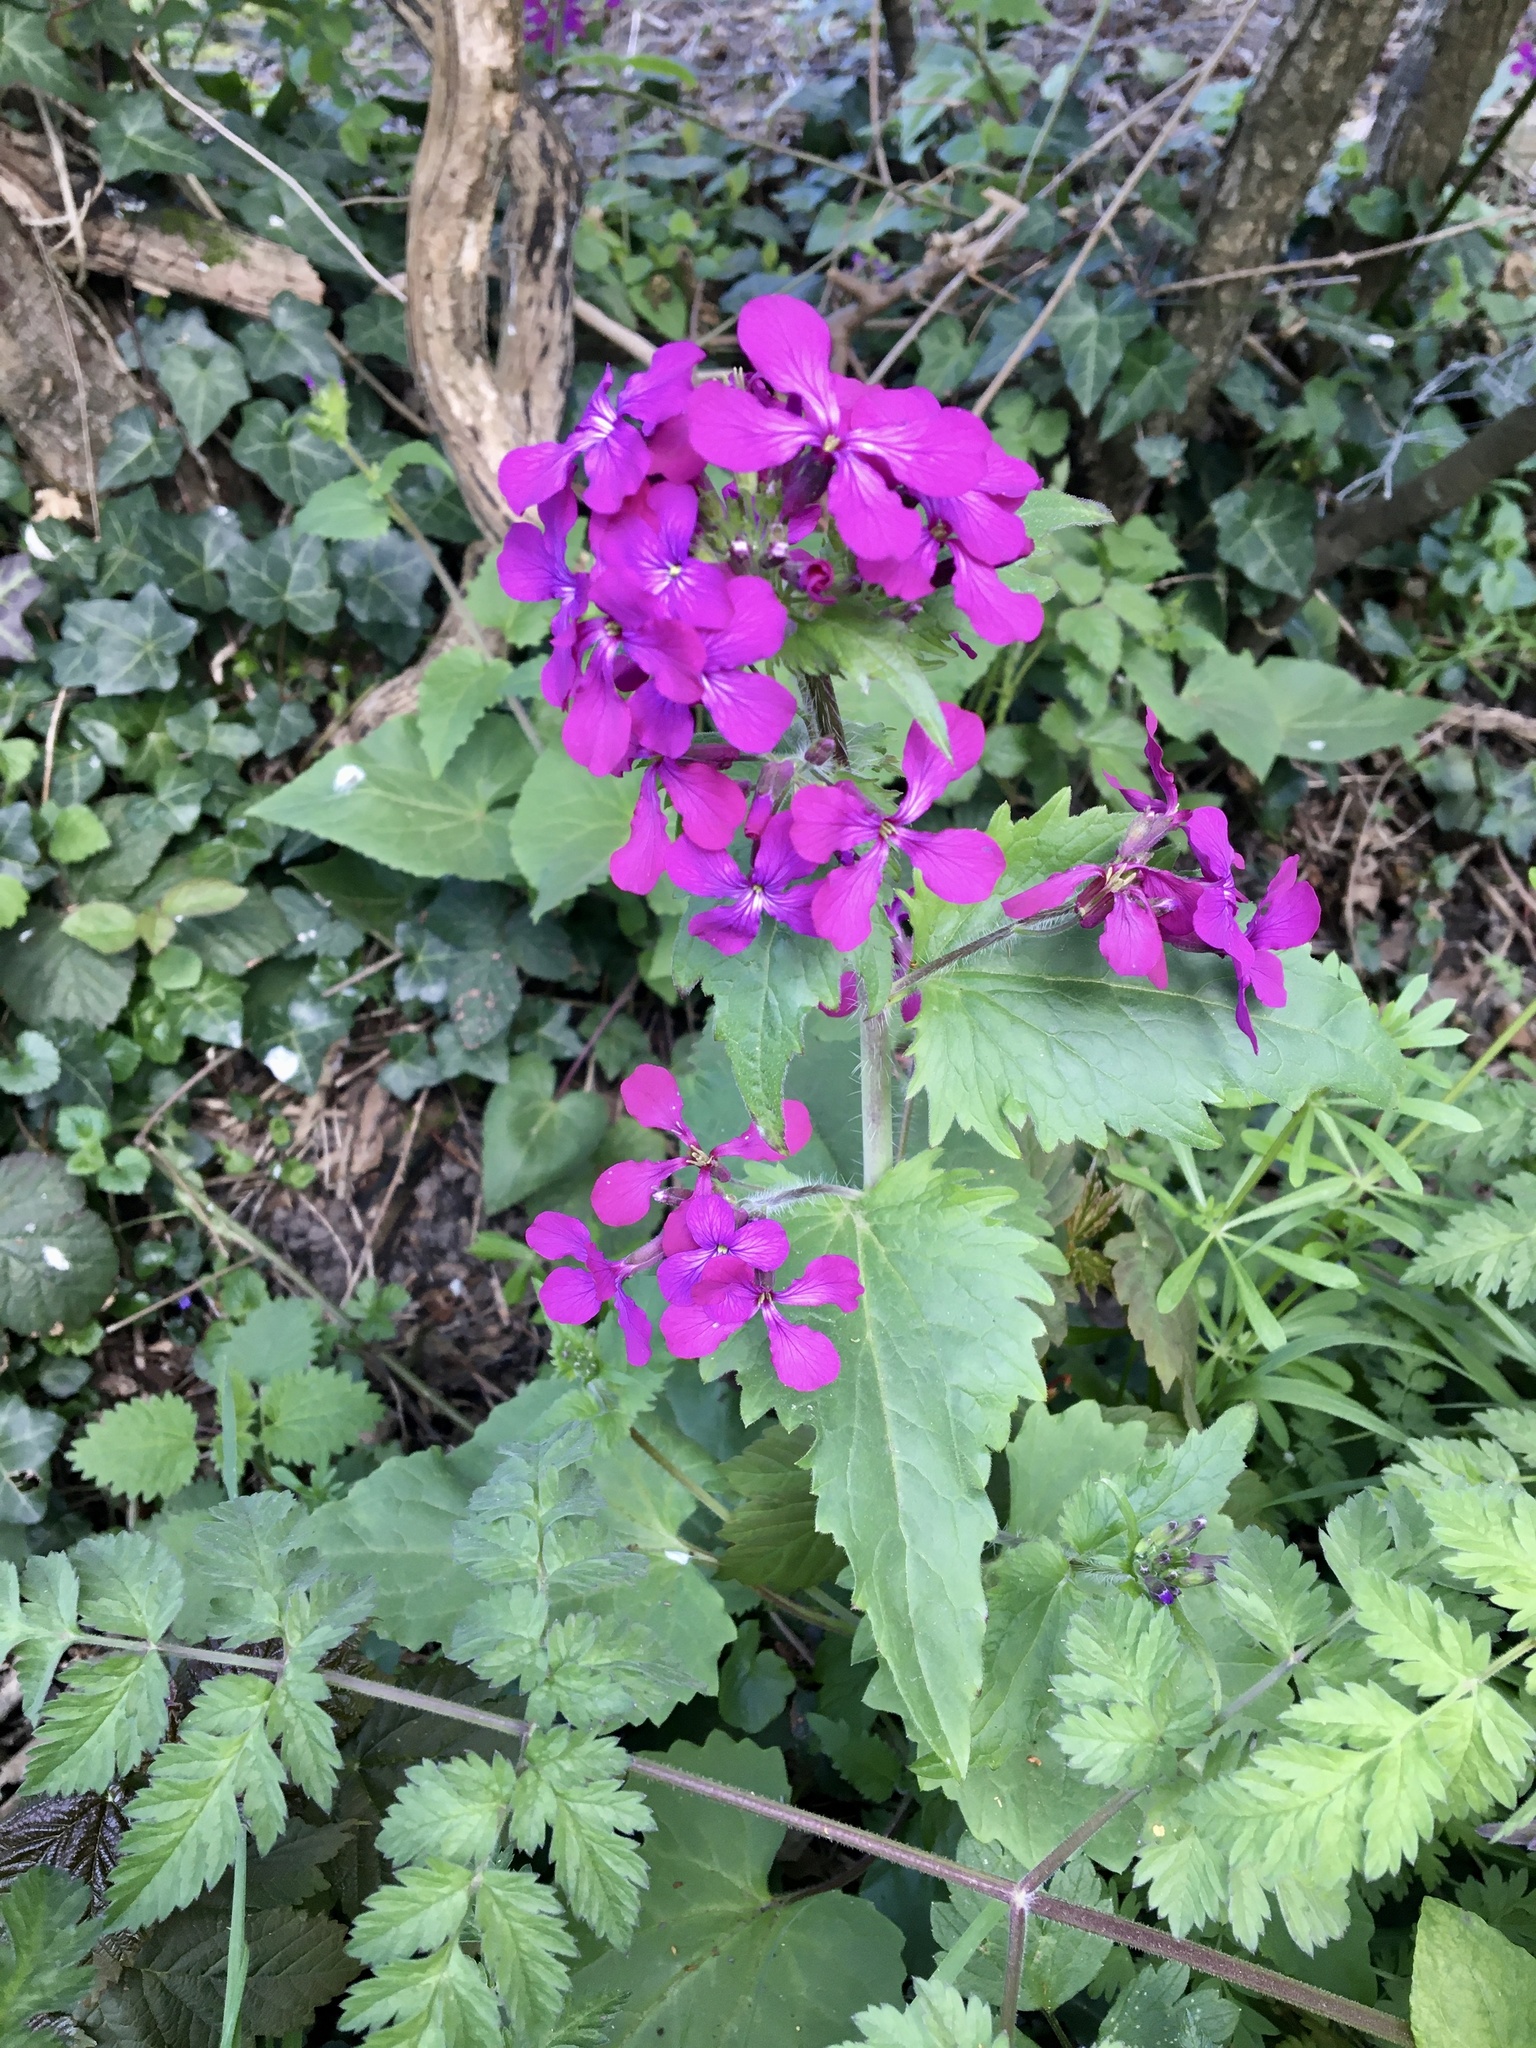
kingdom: Plantae
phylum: Tracheophyta
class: Magnoliopsida
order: Brassicales
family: Brassicaceae
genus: Lunaria
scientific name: Lunaria annua
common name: Honesty
